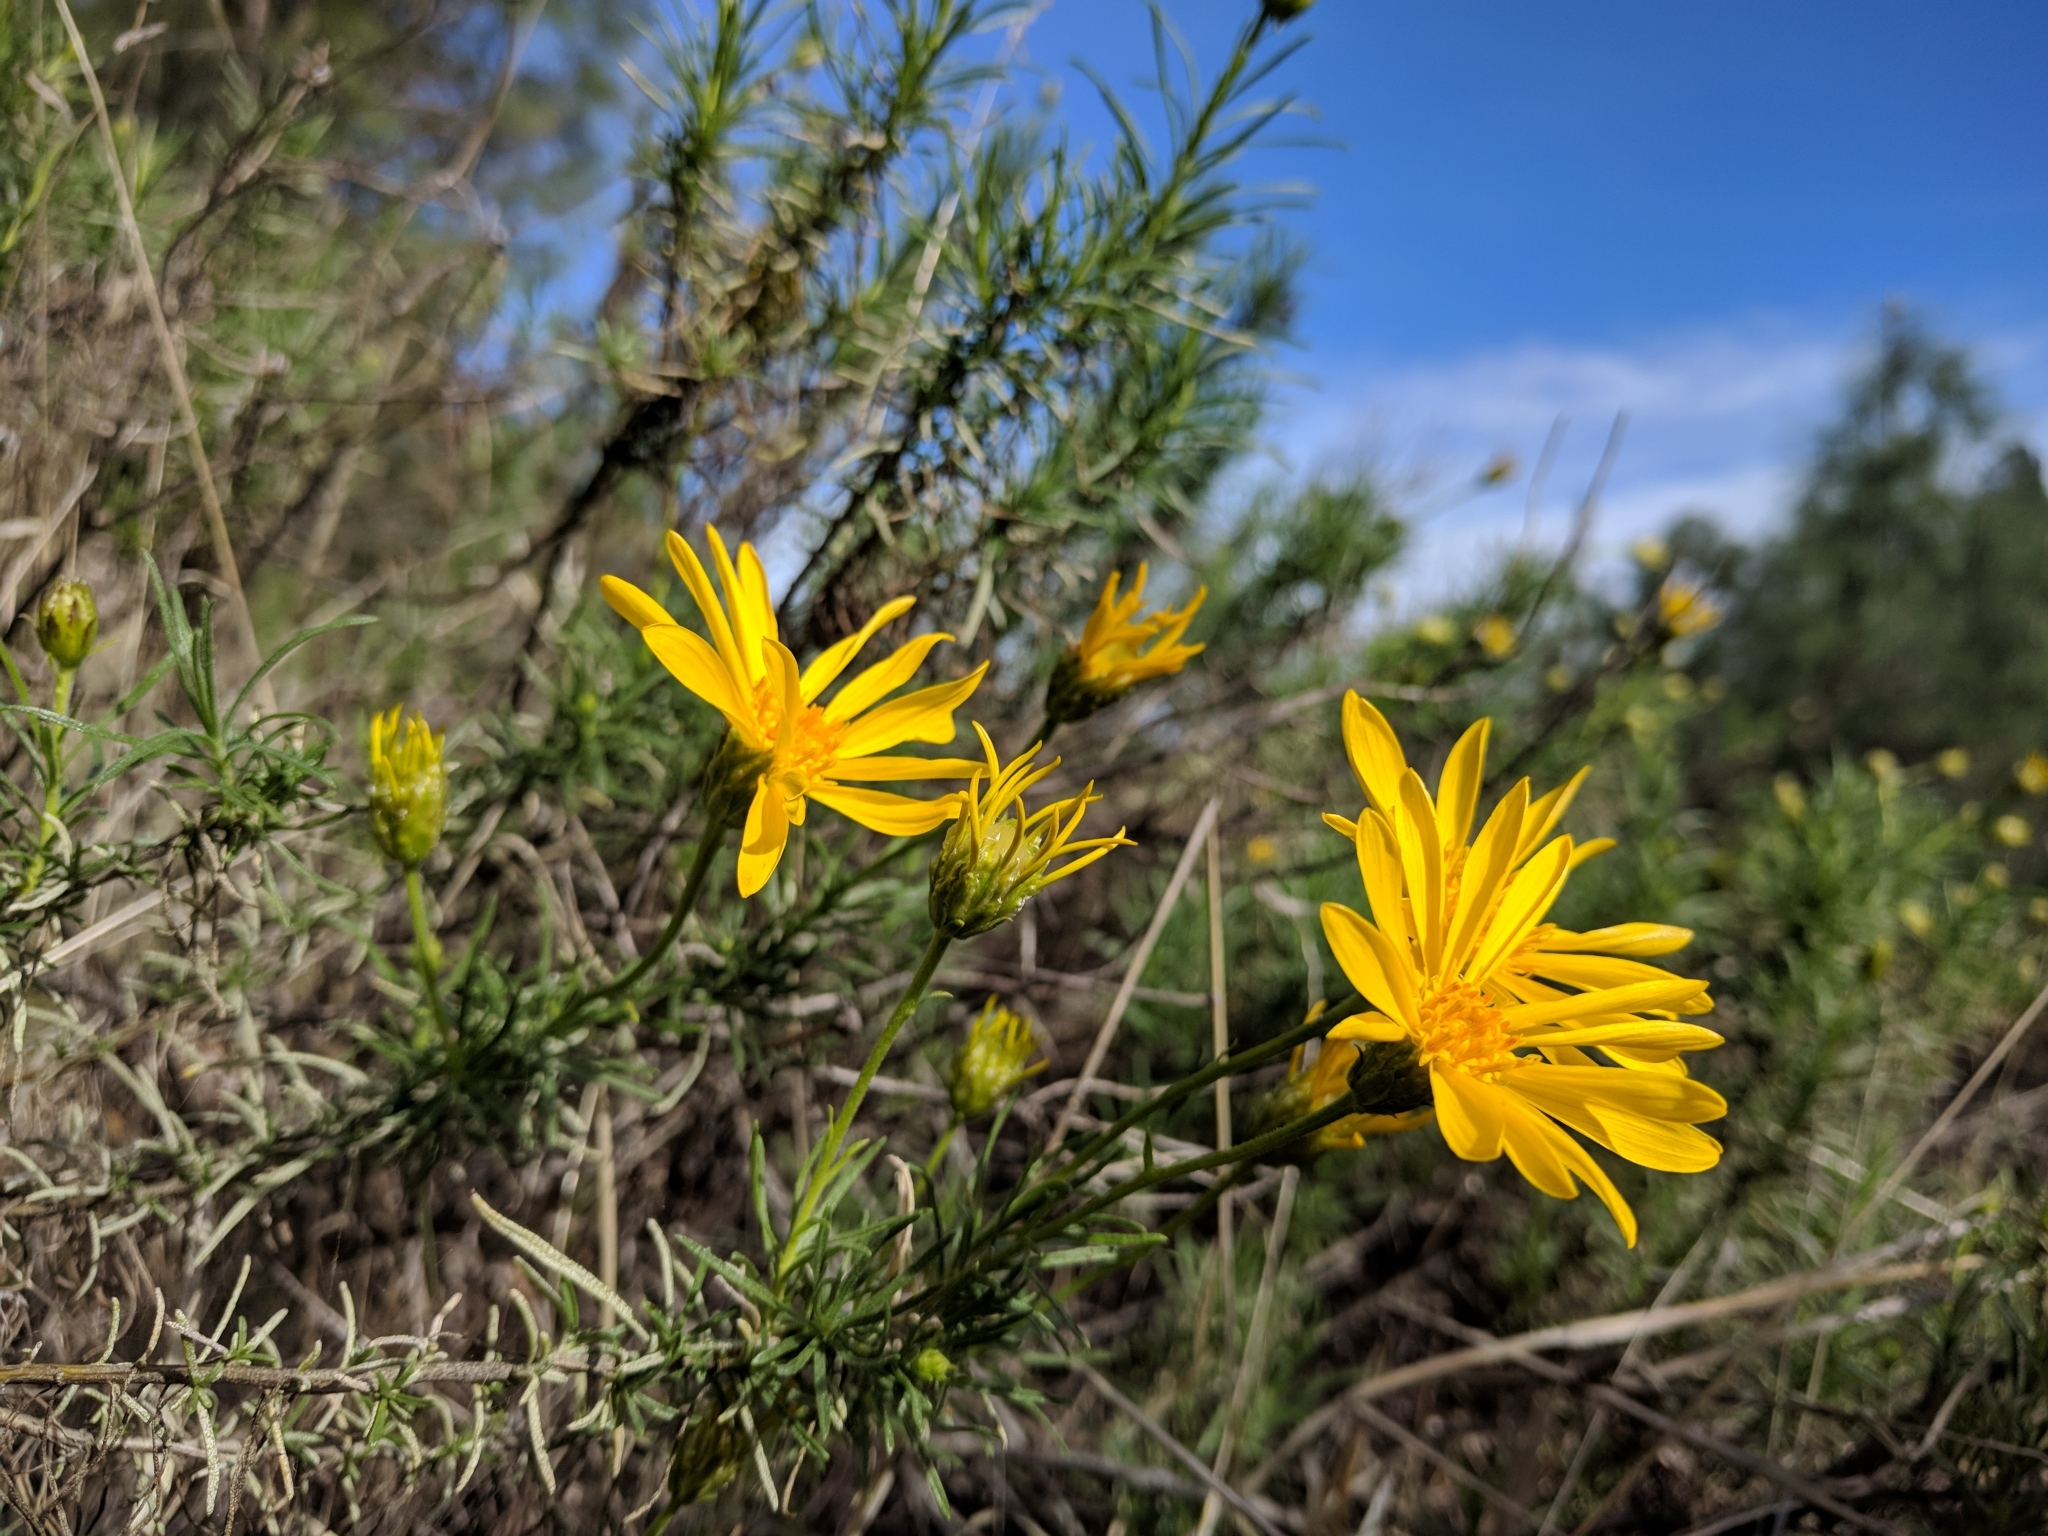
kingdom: Plantae
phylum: Tracheophyta
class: Magnoliopsida
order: Asterales
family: Asteraceae
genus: Ericameria
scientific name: Ericameria linearifolia
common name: Interior goldenbush
